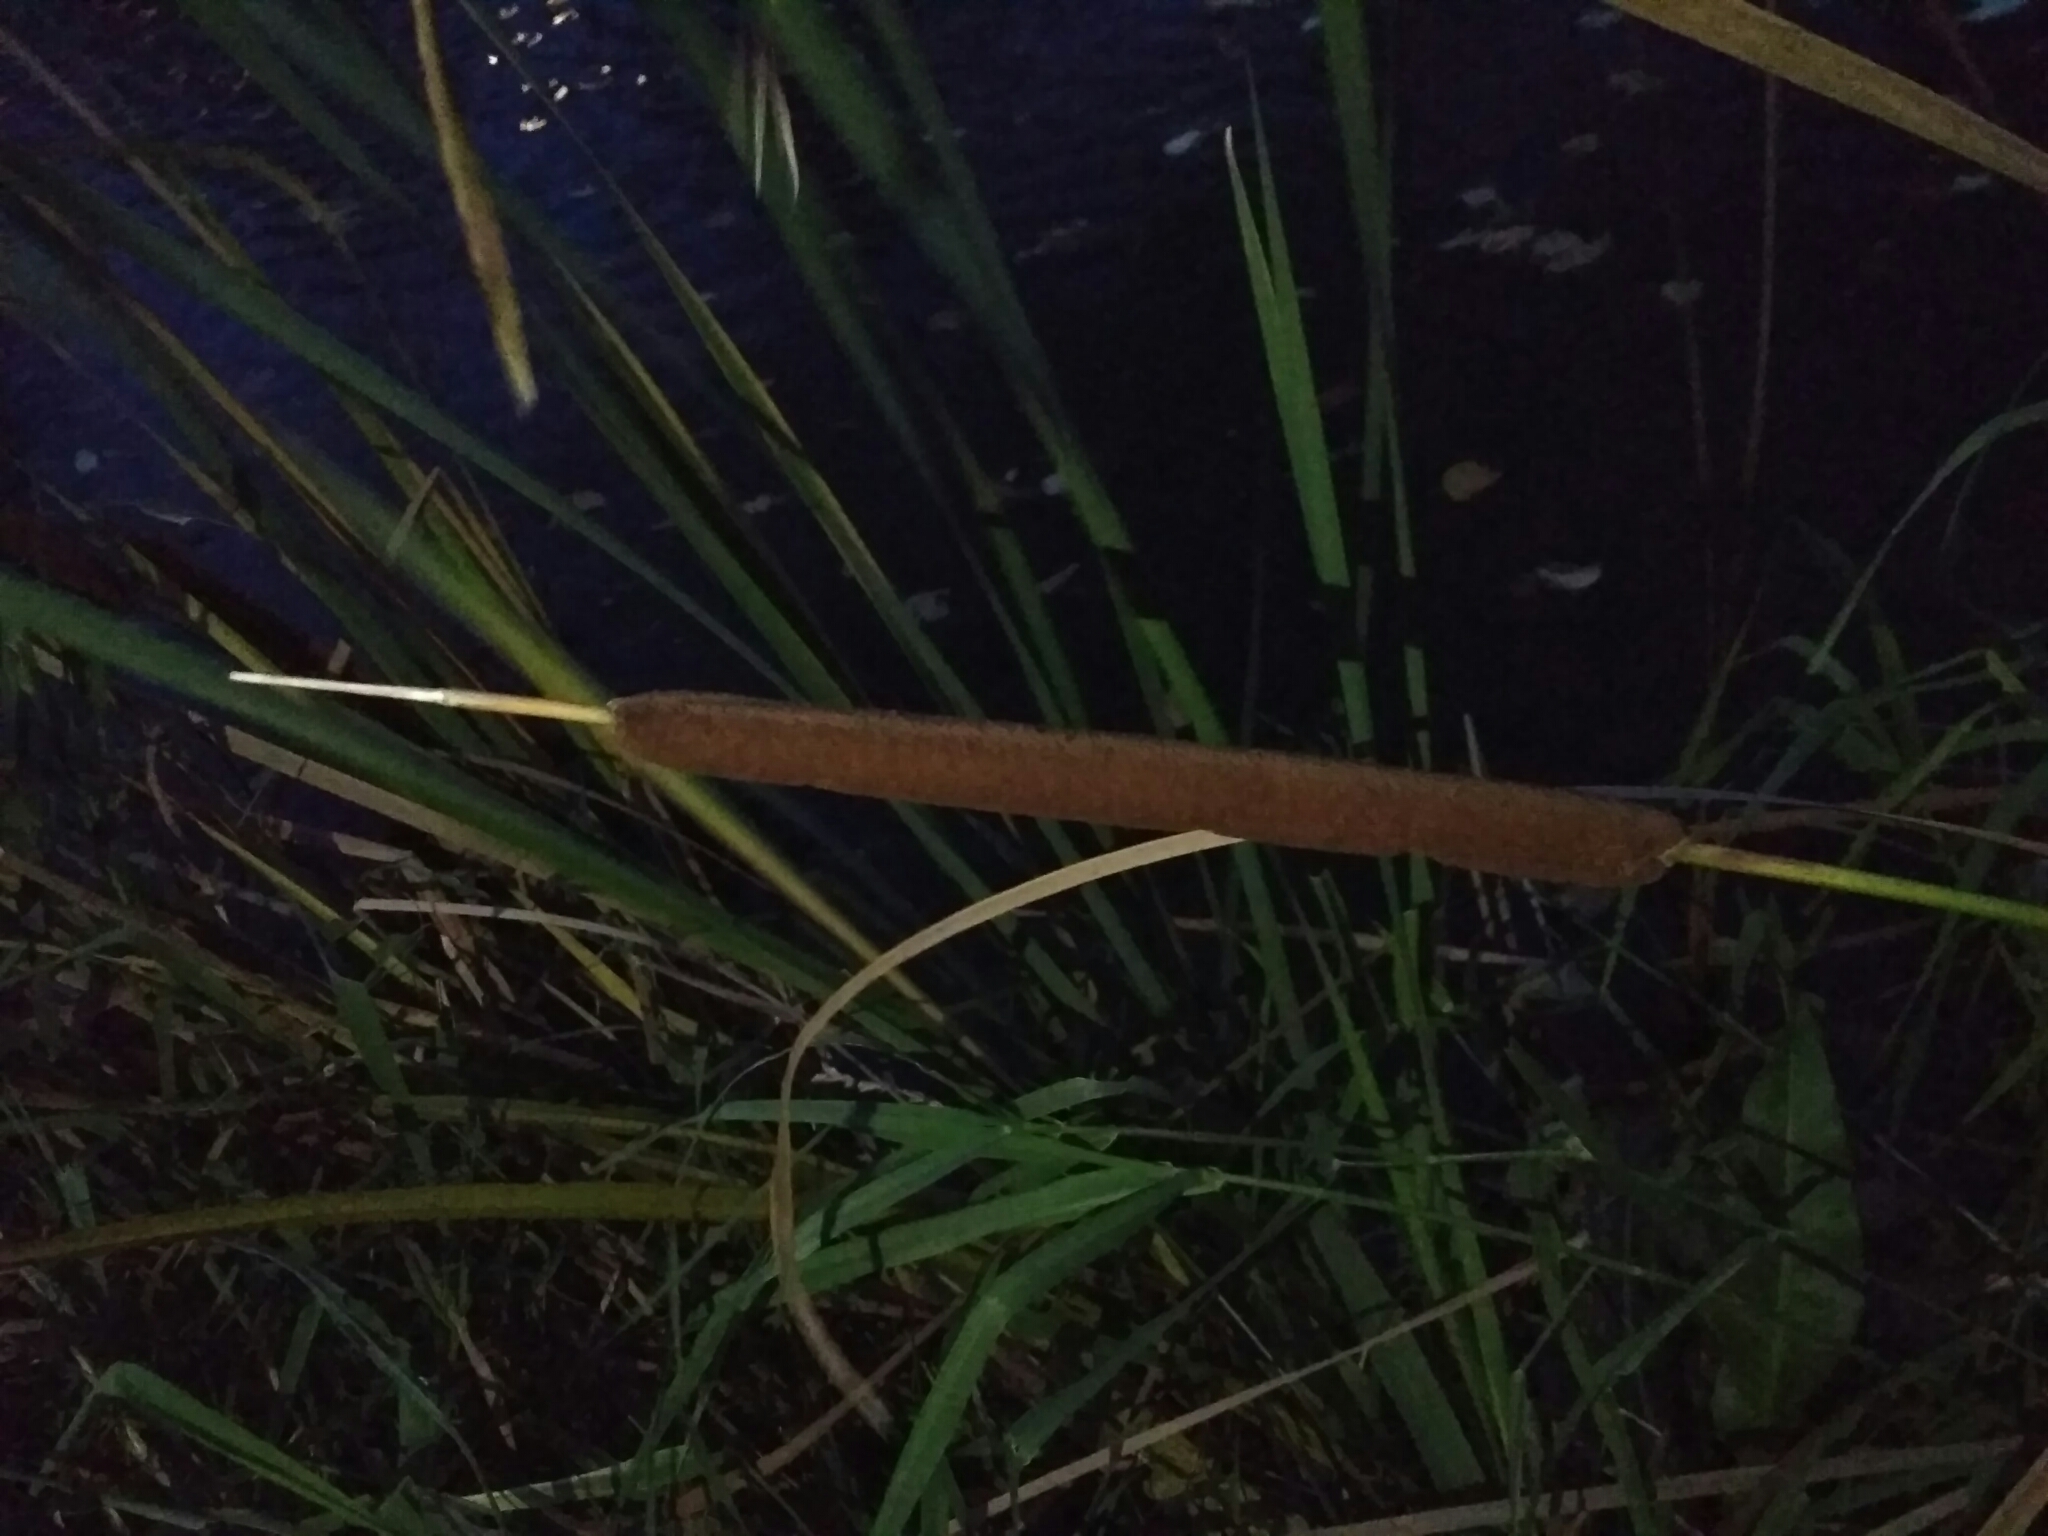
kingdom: Plantae
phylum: Tracheophyta
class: Liliopsida
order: Poales
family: Typhaceae
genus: Typha
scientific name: Typha latifolia
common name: Broadleaf cattail
